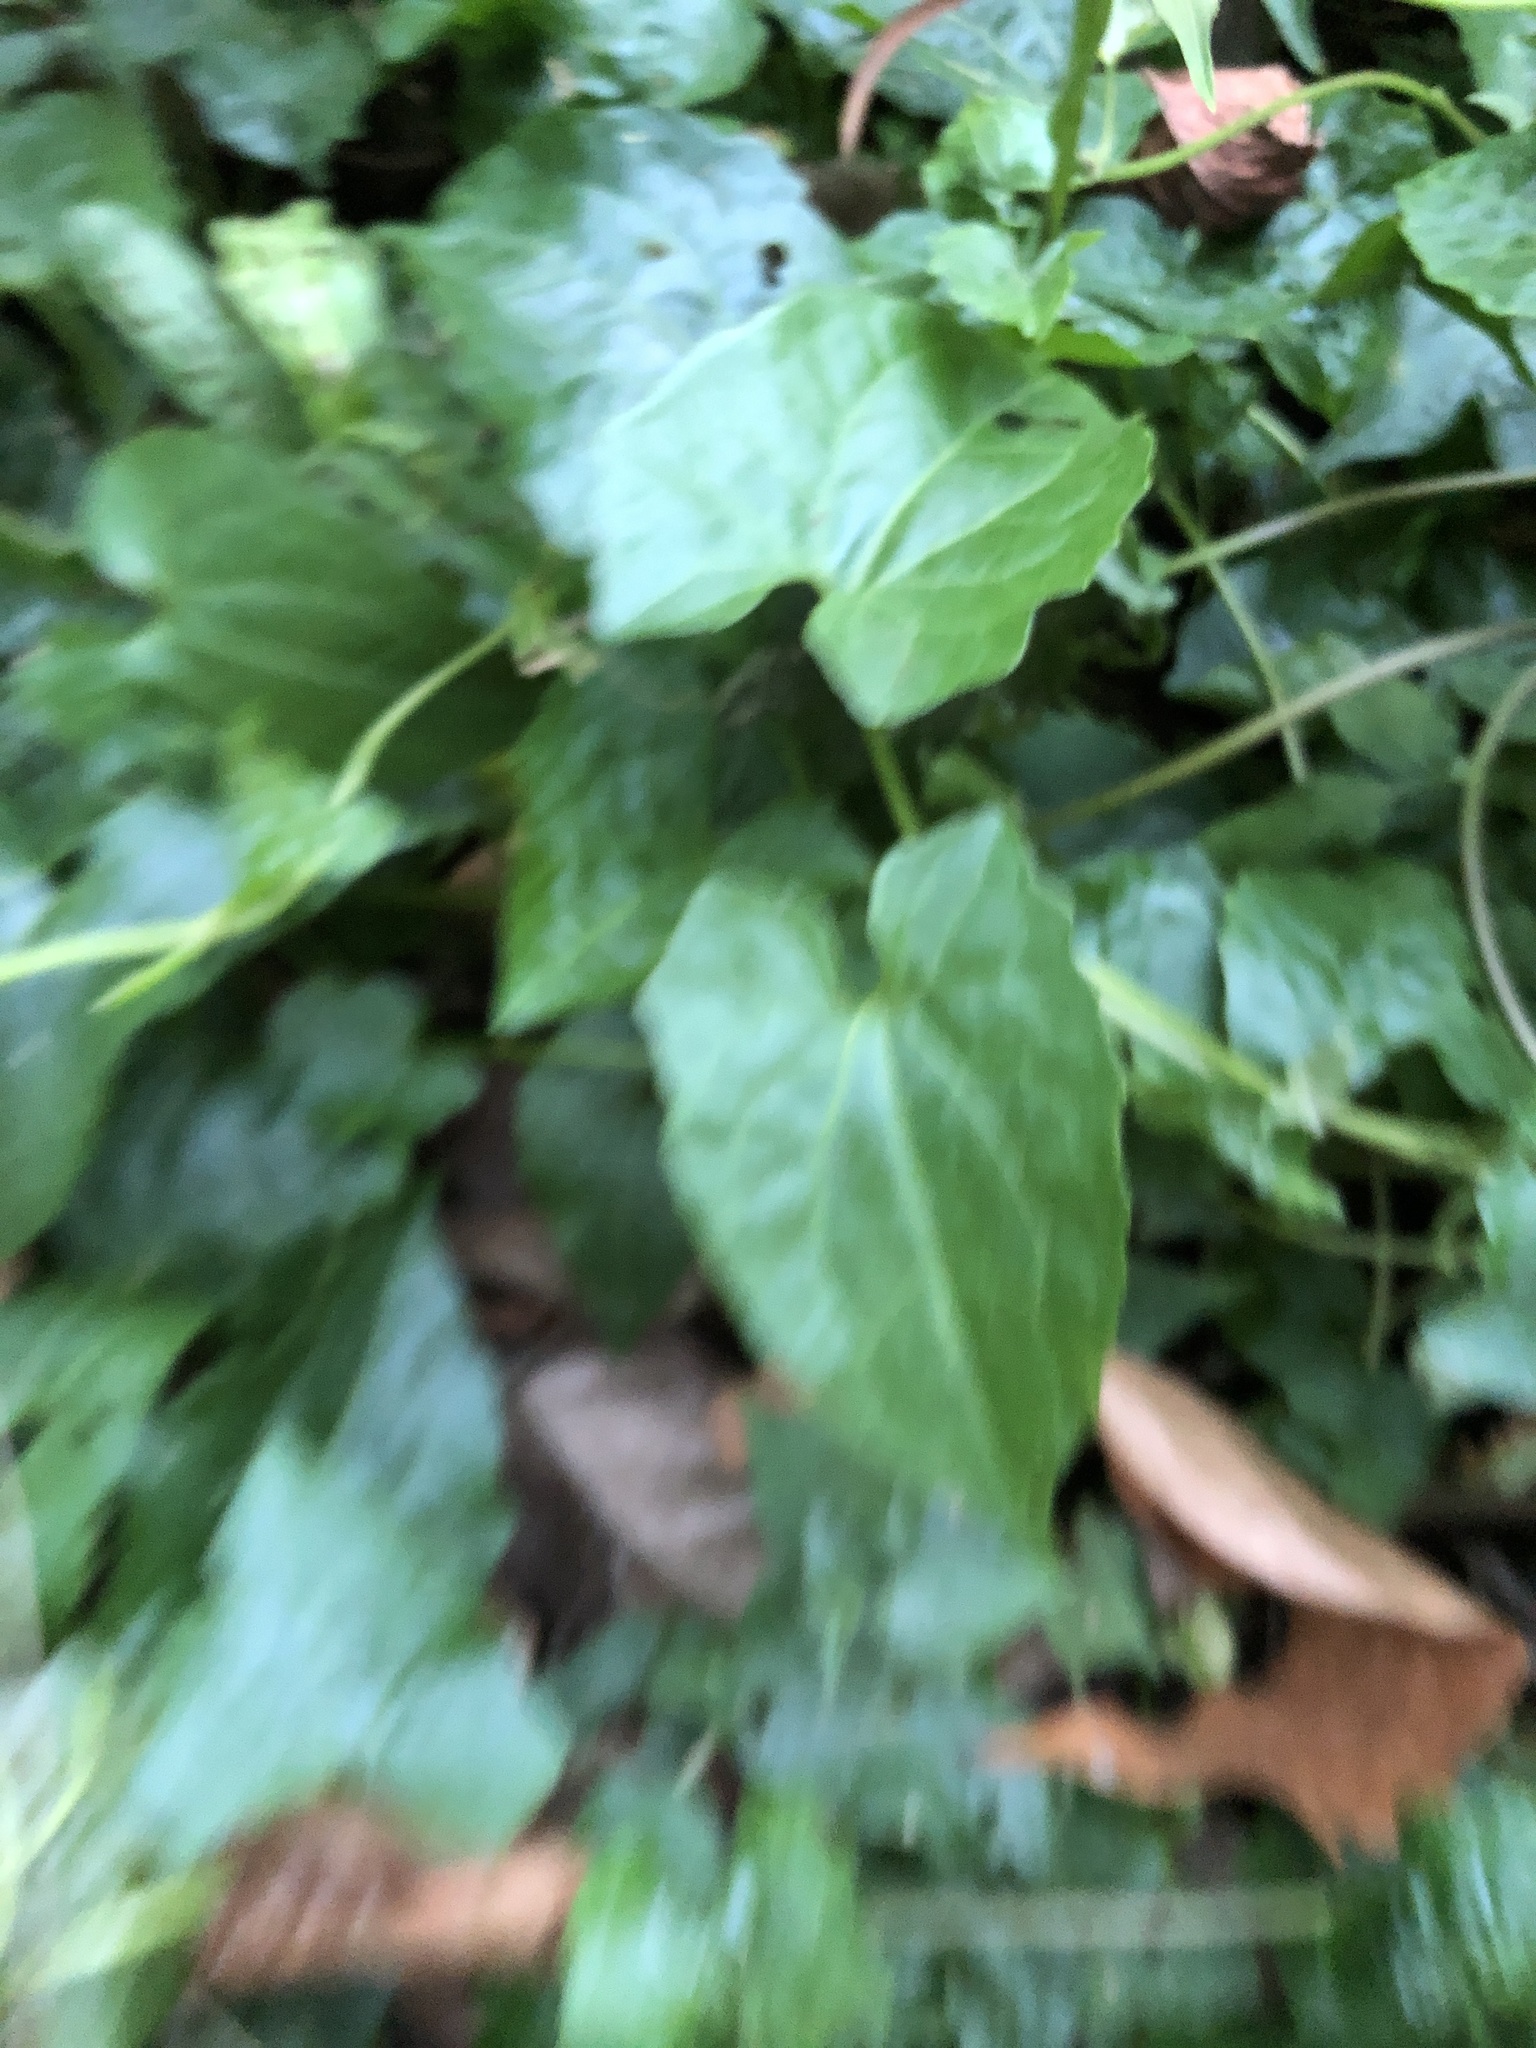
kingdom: Plantae
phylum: Tracheophyta
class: Magnoliopsida
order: Asterales
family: Asteraceae
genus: Mikania
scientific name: Mikania micrantha
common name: Mile-a-minute
